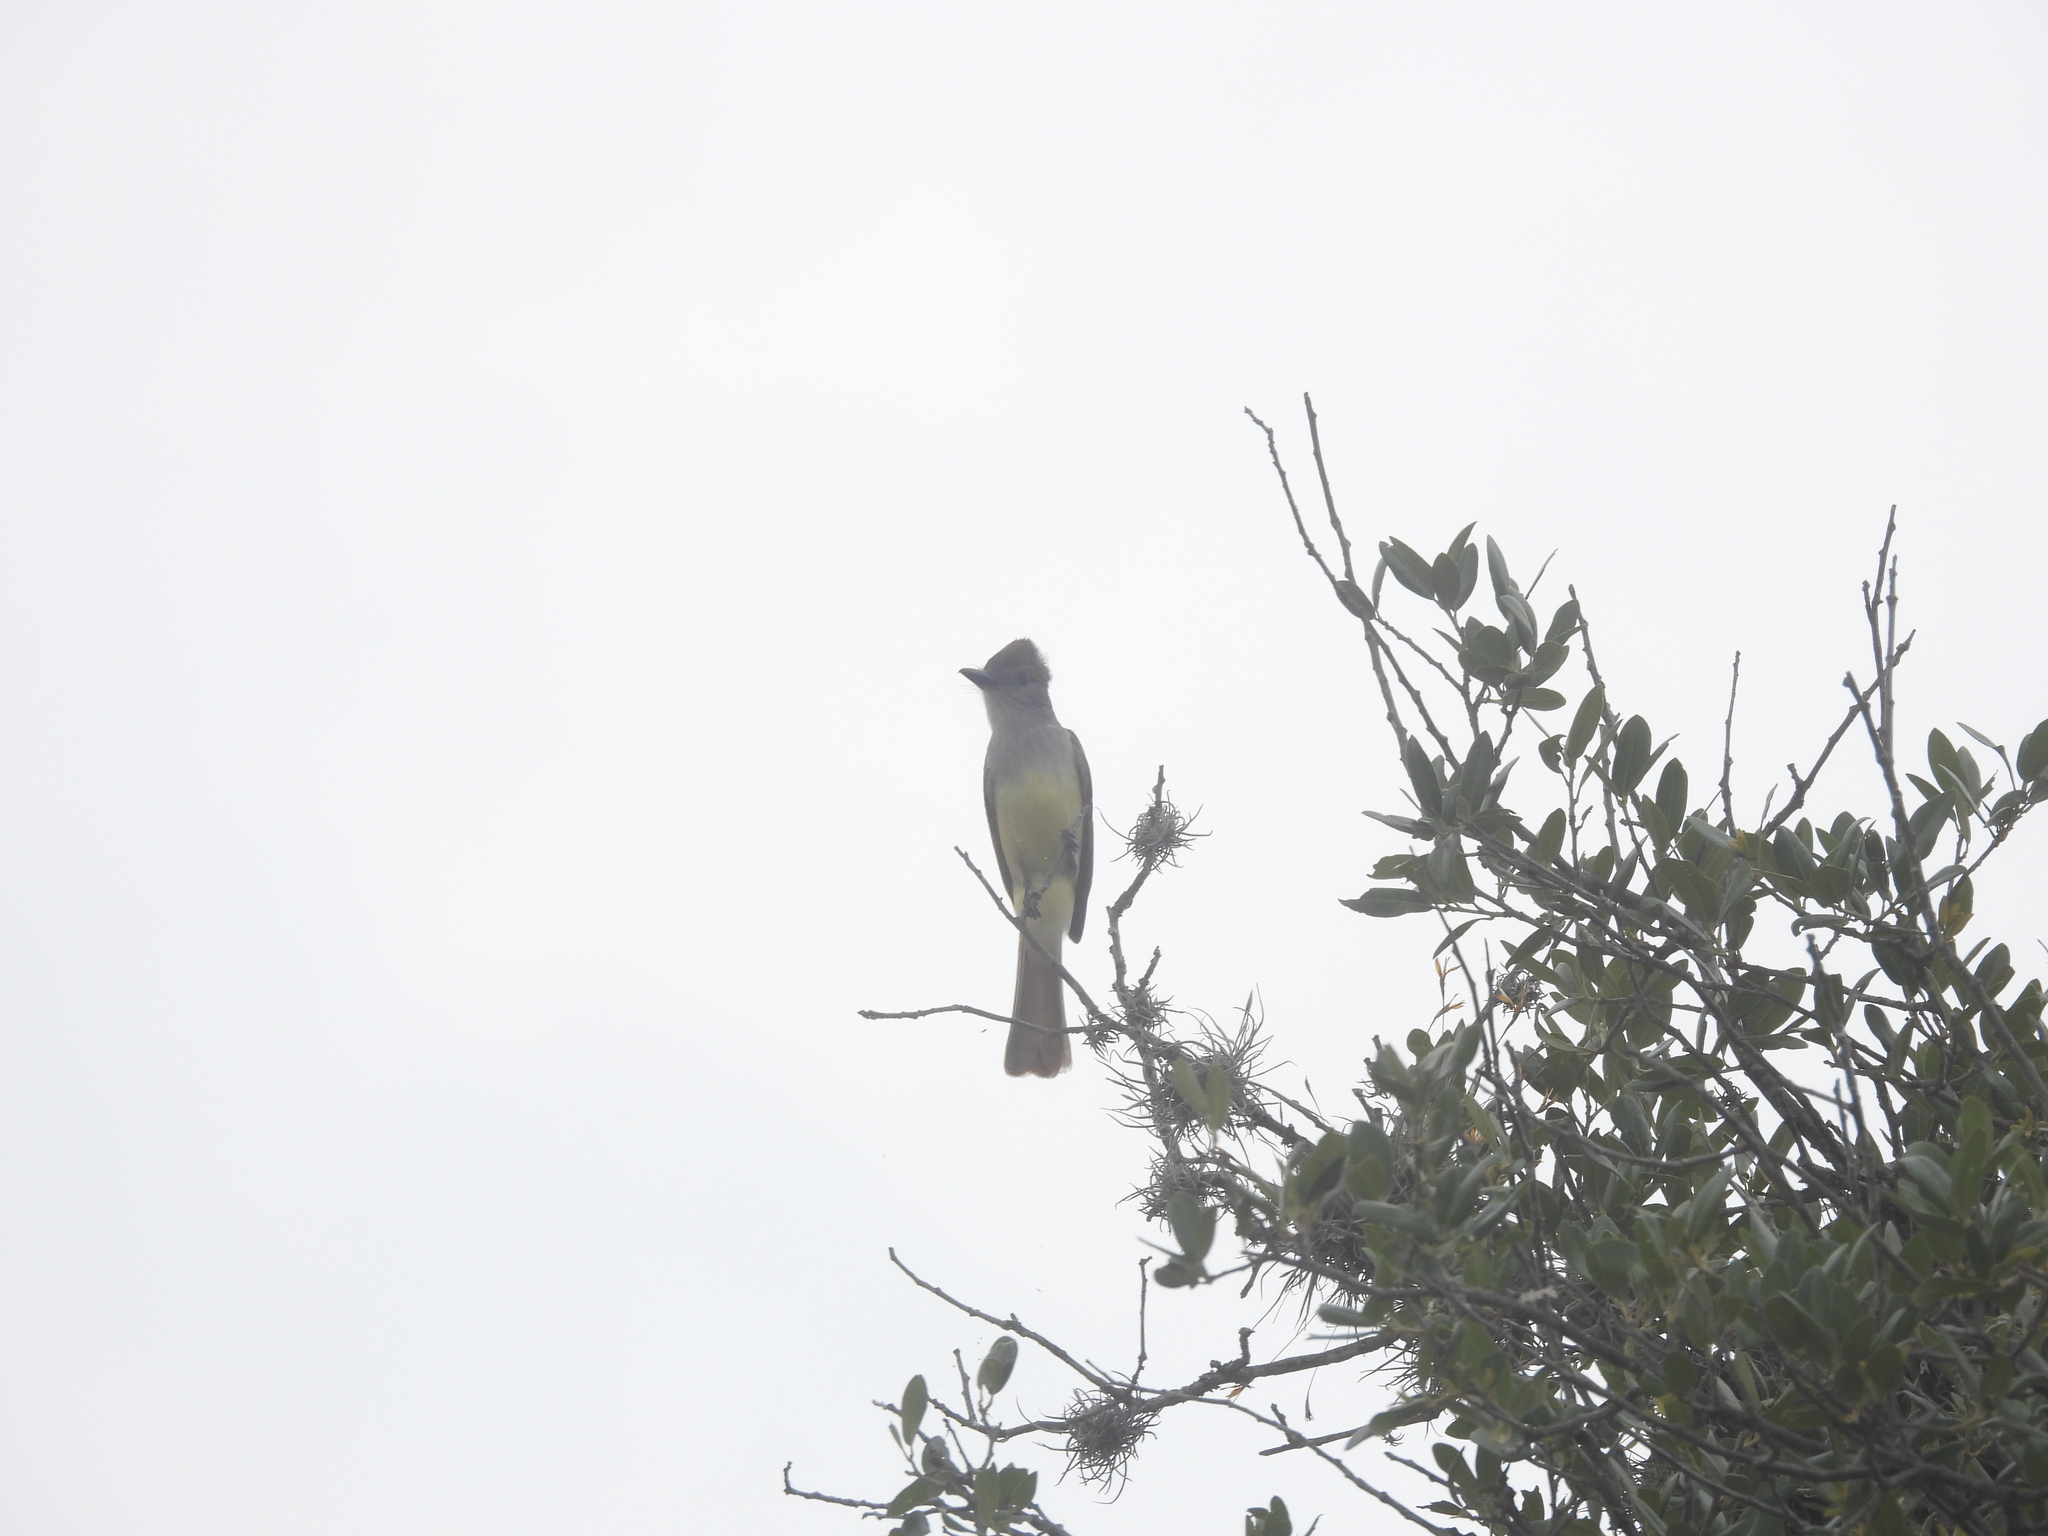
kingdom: Animalia
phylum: Chordata
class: Aves
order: Passeriformes
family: Tyrannidae
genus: Myiarchus
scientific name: Myiarchus tyrannulus
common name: Brown-crested flycatcher
